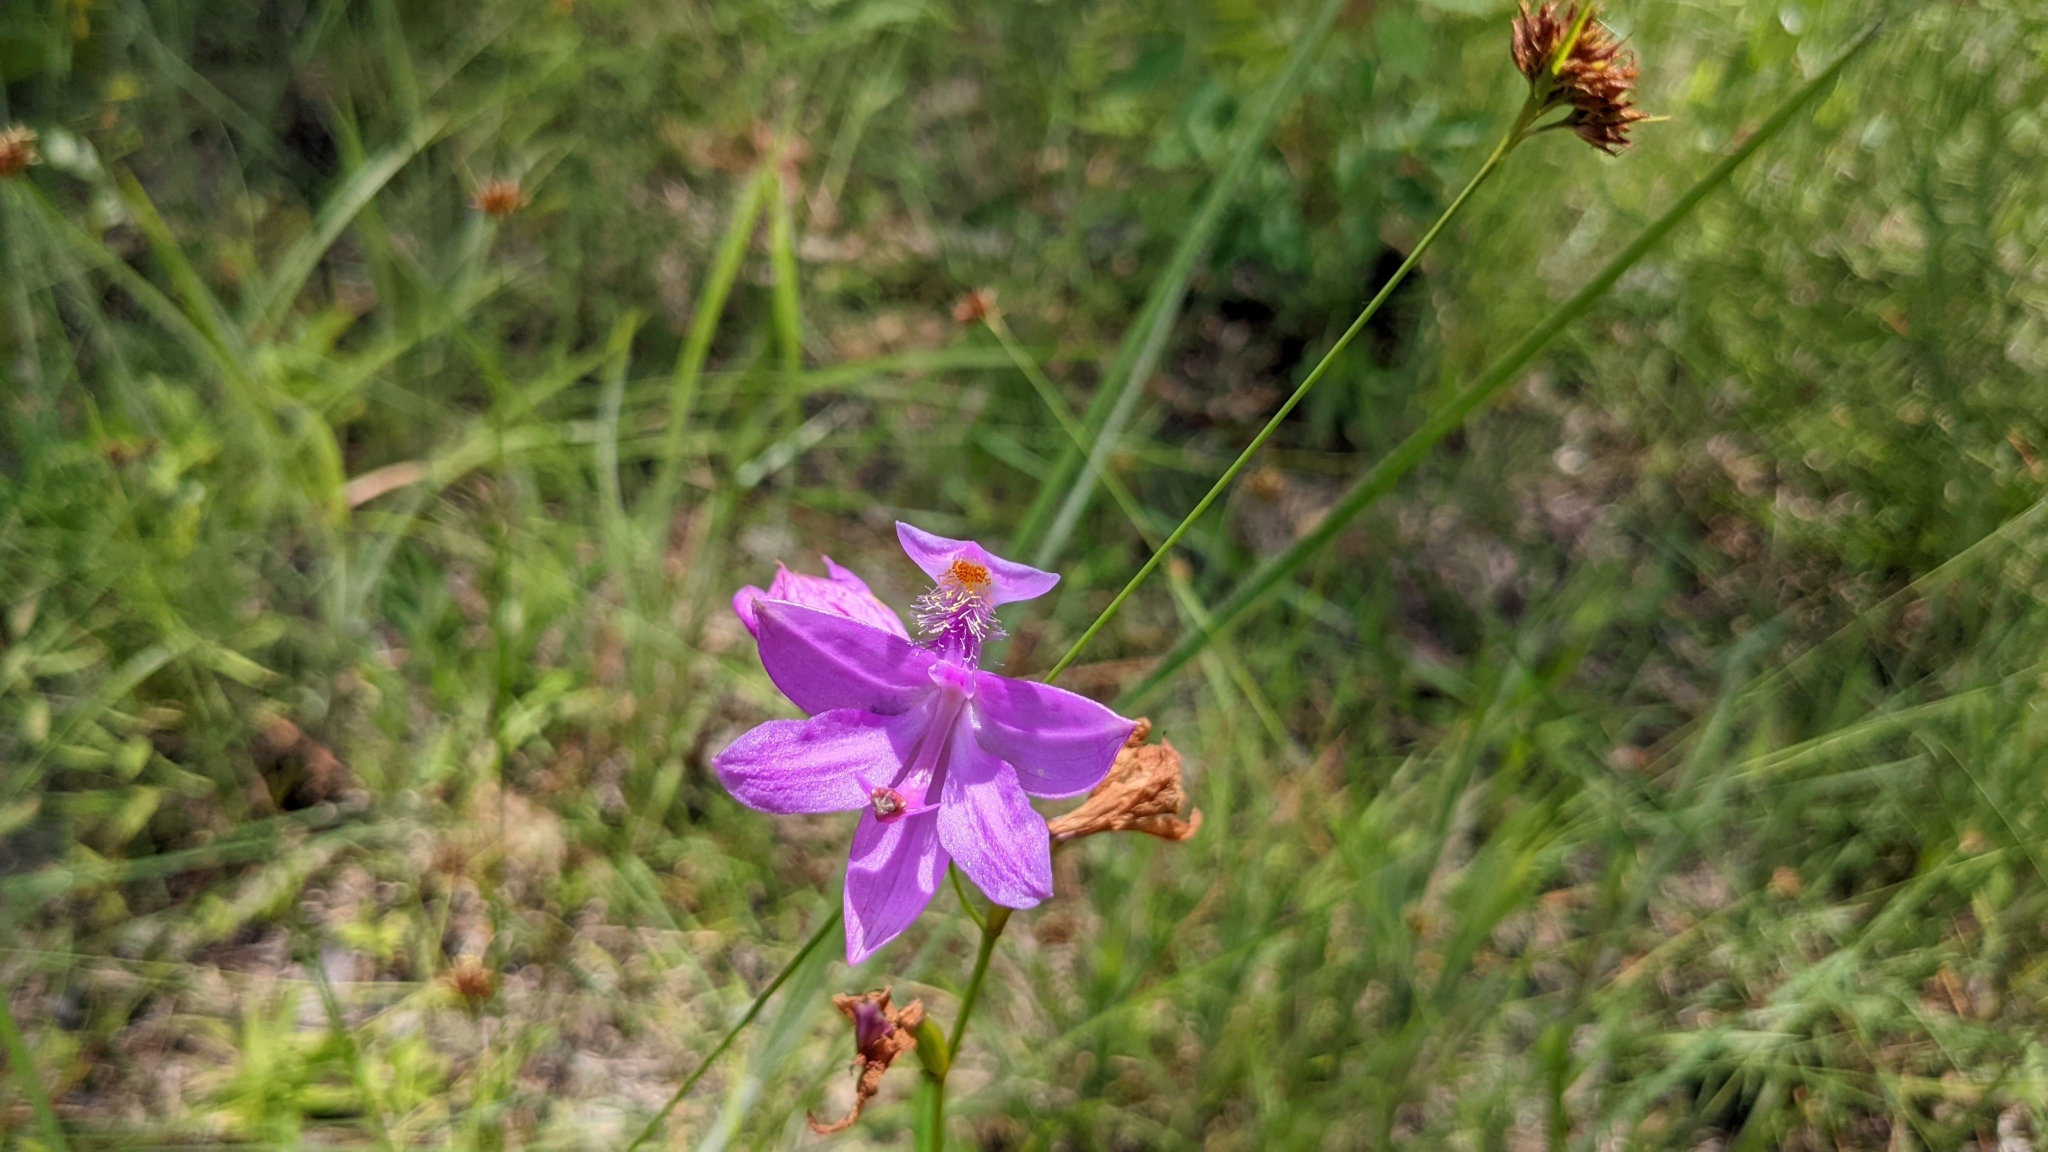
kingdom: Plantae
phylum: Tracheophyta
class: Liliopsida
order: Asparagales
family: Orchidaceae
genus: Calopogon
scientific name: Calopogon tuberosus
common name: Grass-pink
